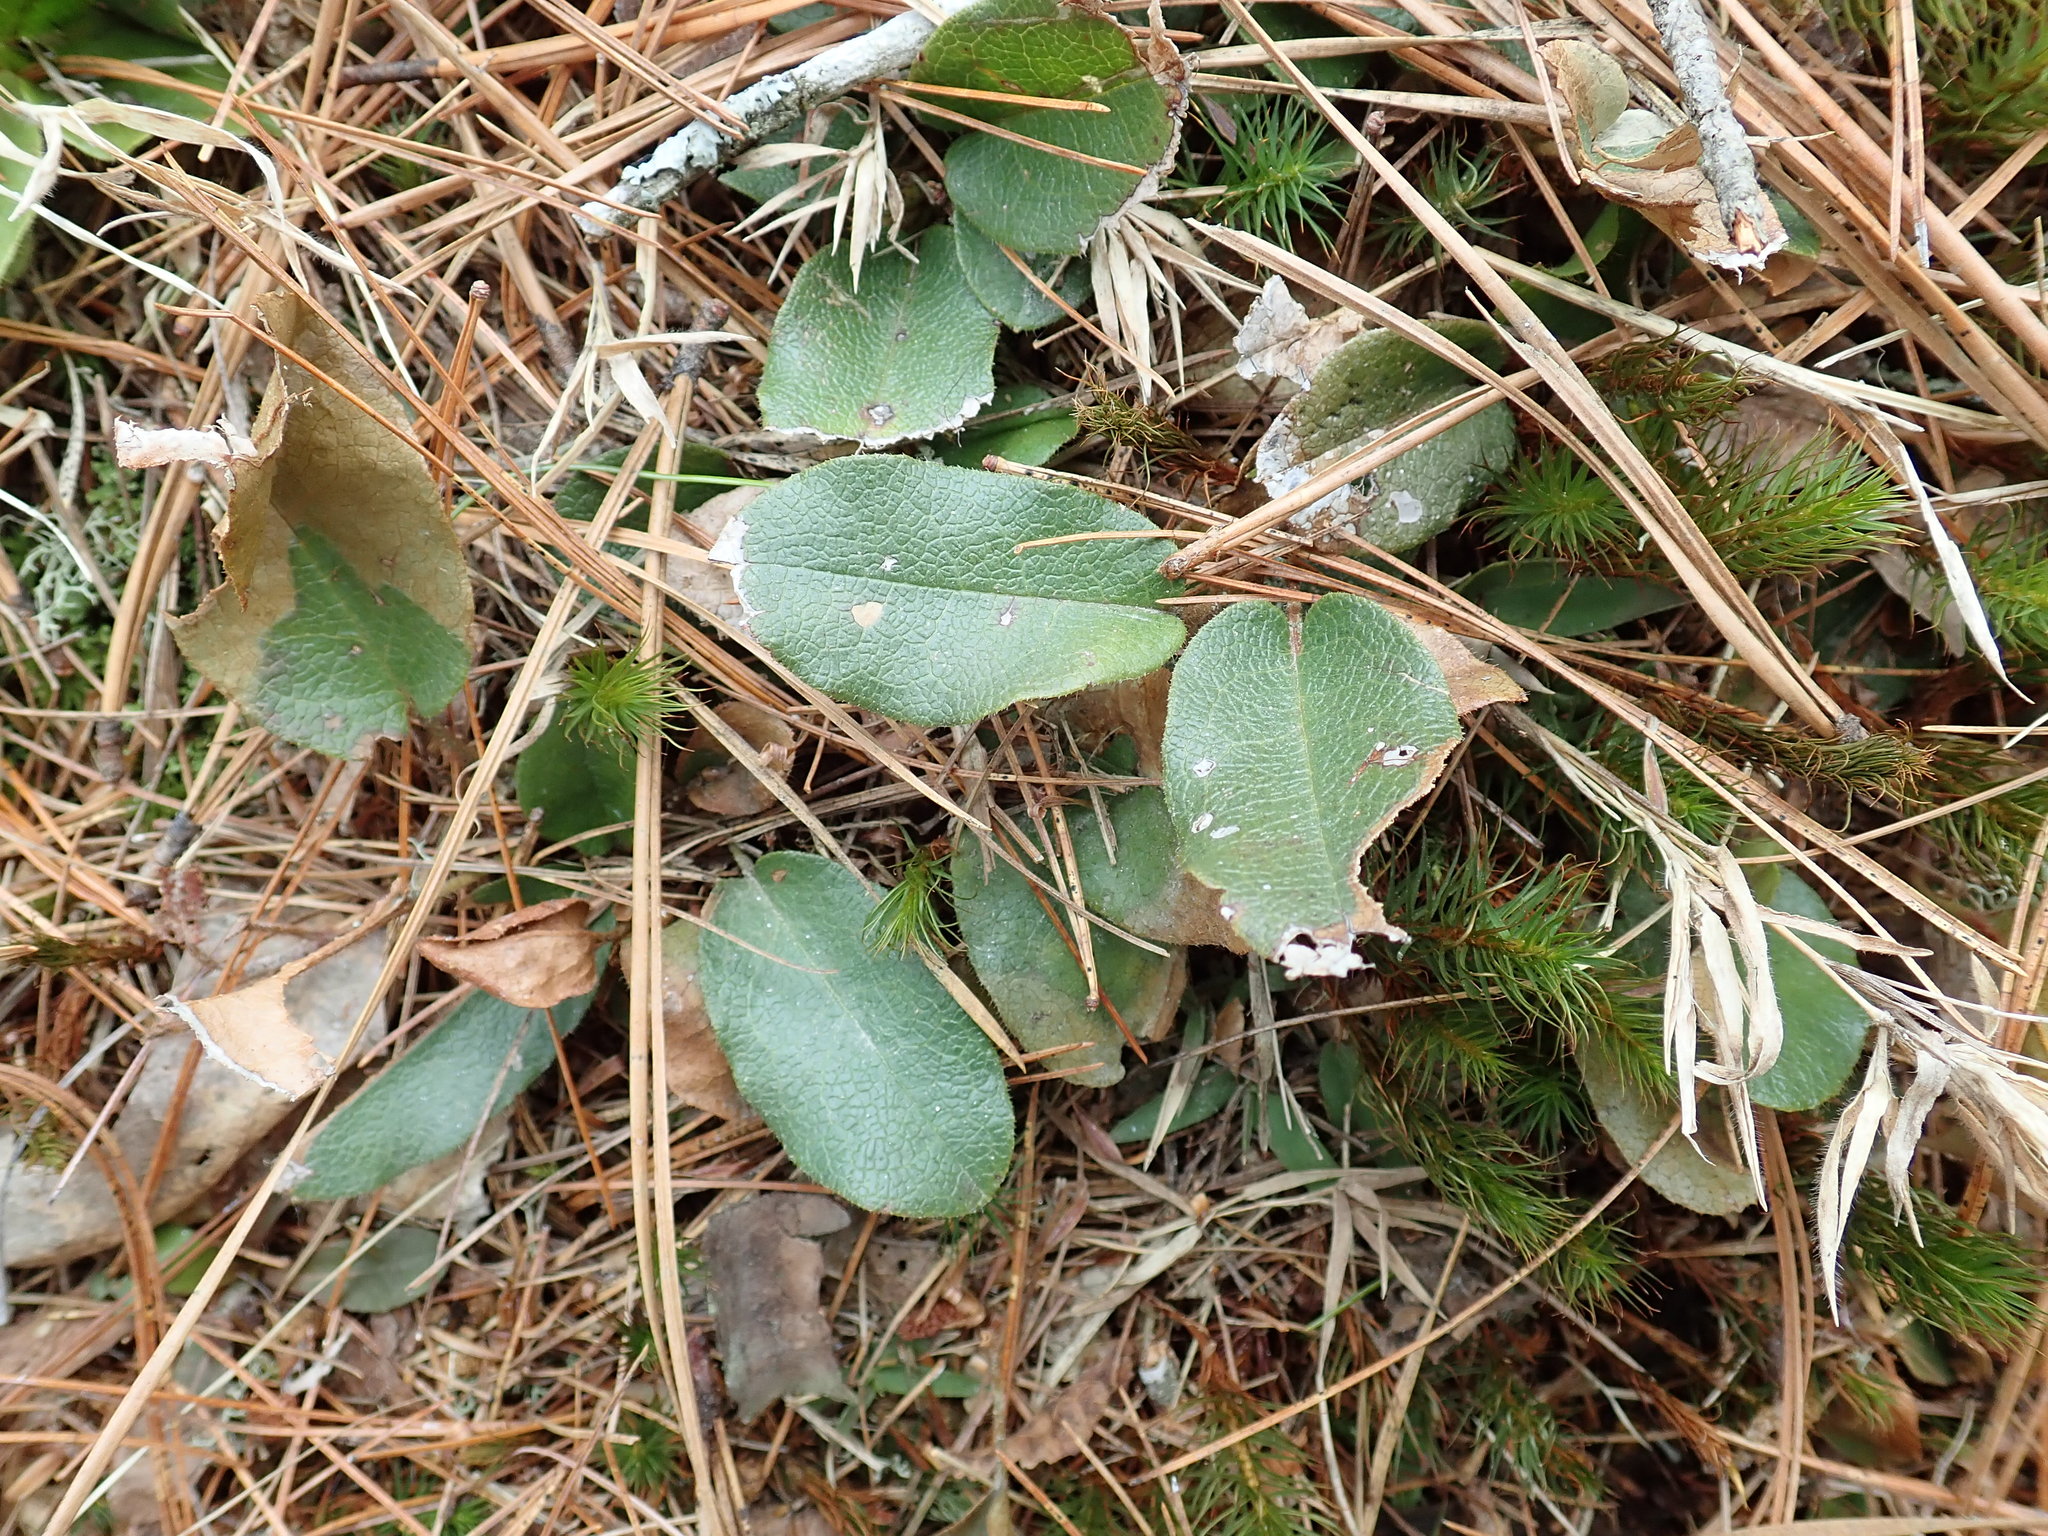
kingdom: Plantae
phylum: Tracheophyta
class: Magnoliopsida
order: Ericales
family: Ericaceae
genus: Epigaea
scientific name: Epigaea repens
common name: Gravelroot
